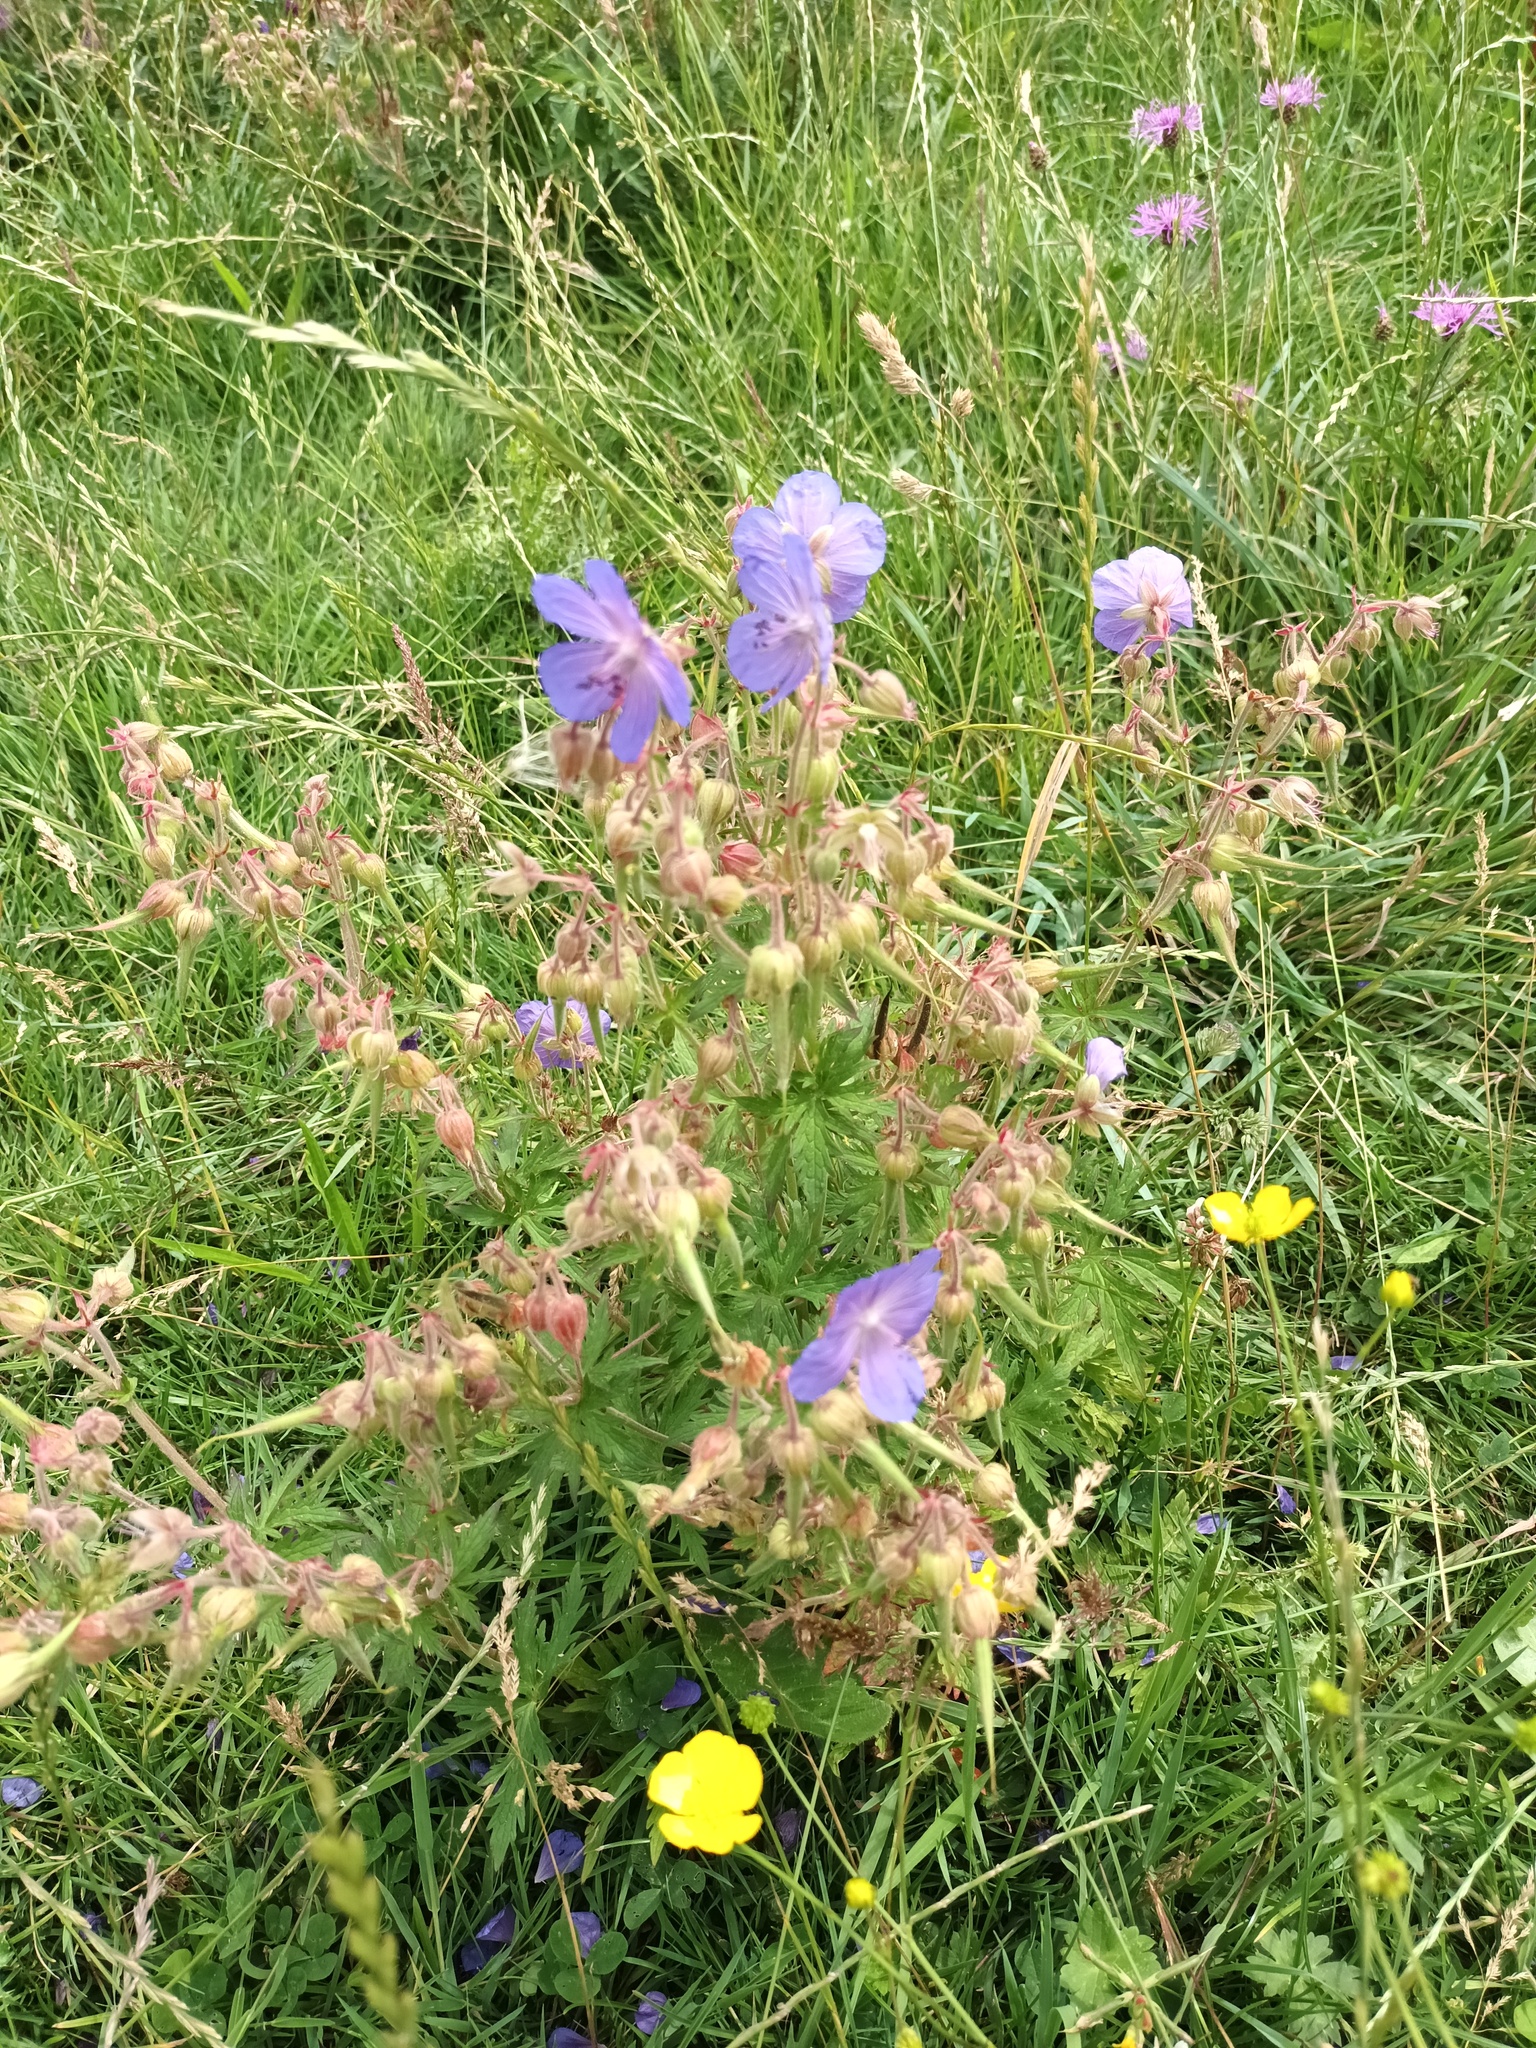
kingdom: Plantae
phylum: Tracheophyta
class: Magnoliopsida
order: Geraniales
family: Geraniaceae
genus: Geranium
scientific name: Geranium pratense
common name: Meadow crane's-bill
